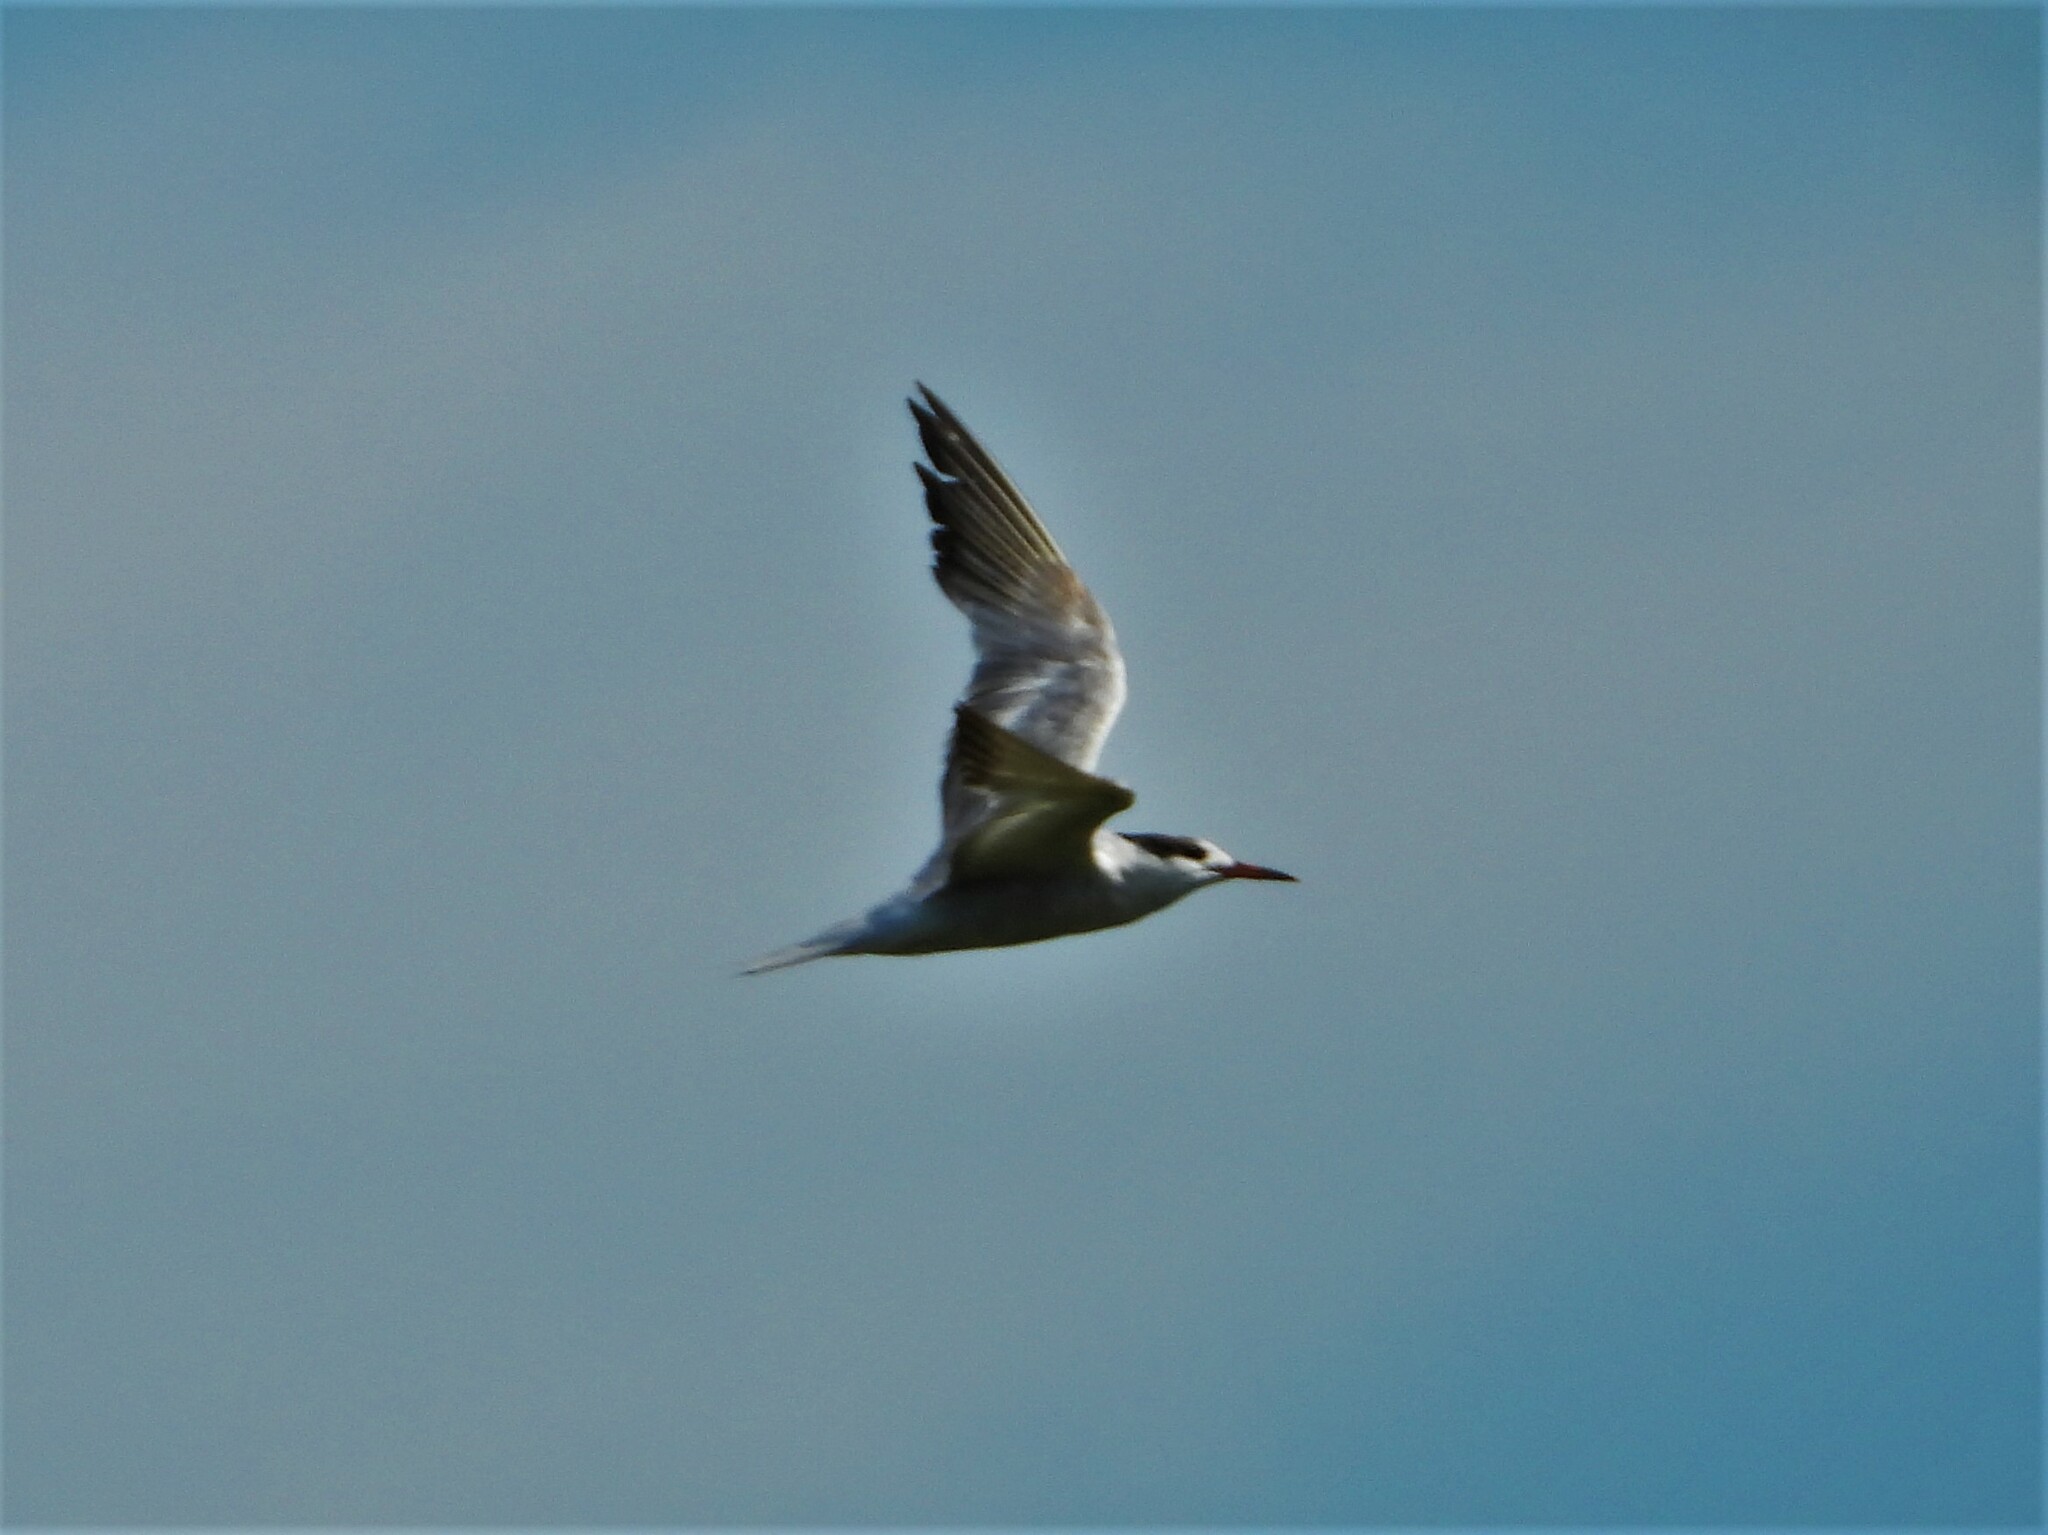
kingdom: Animalia
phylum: Chordata
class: Aves
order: Charadriiformes
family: Laridae
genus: Sterna
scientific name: Sterna hirundo
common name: Common tern
